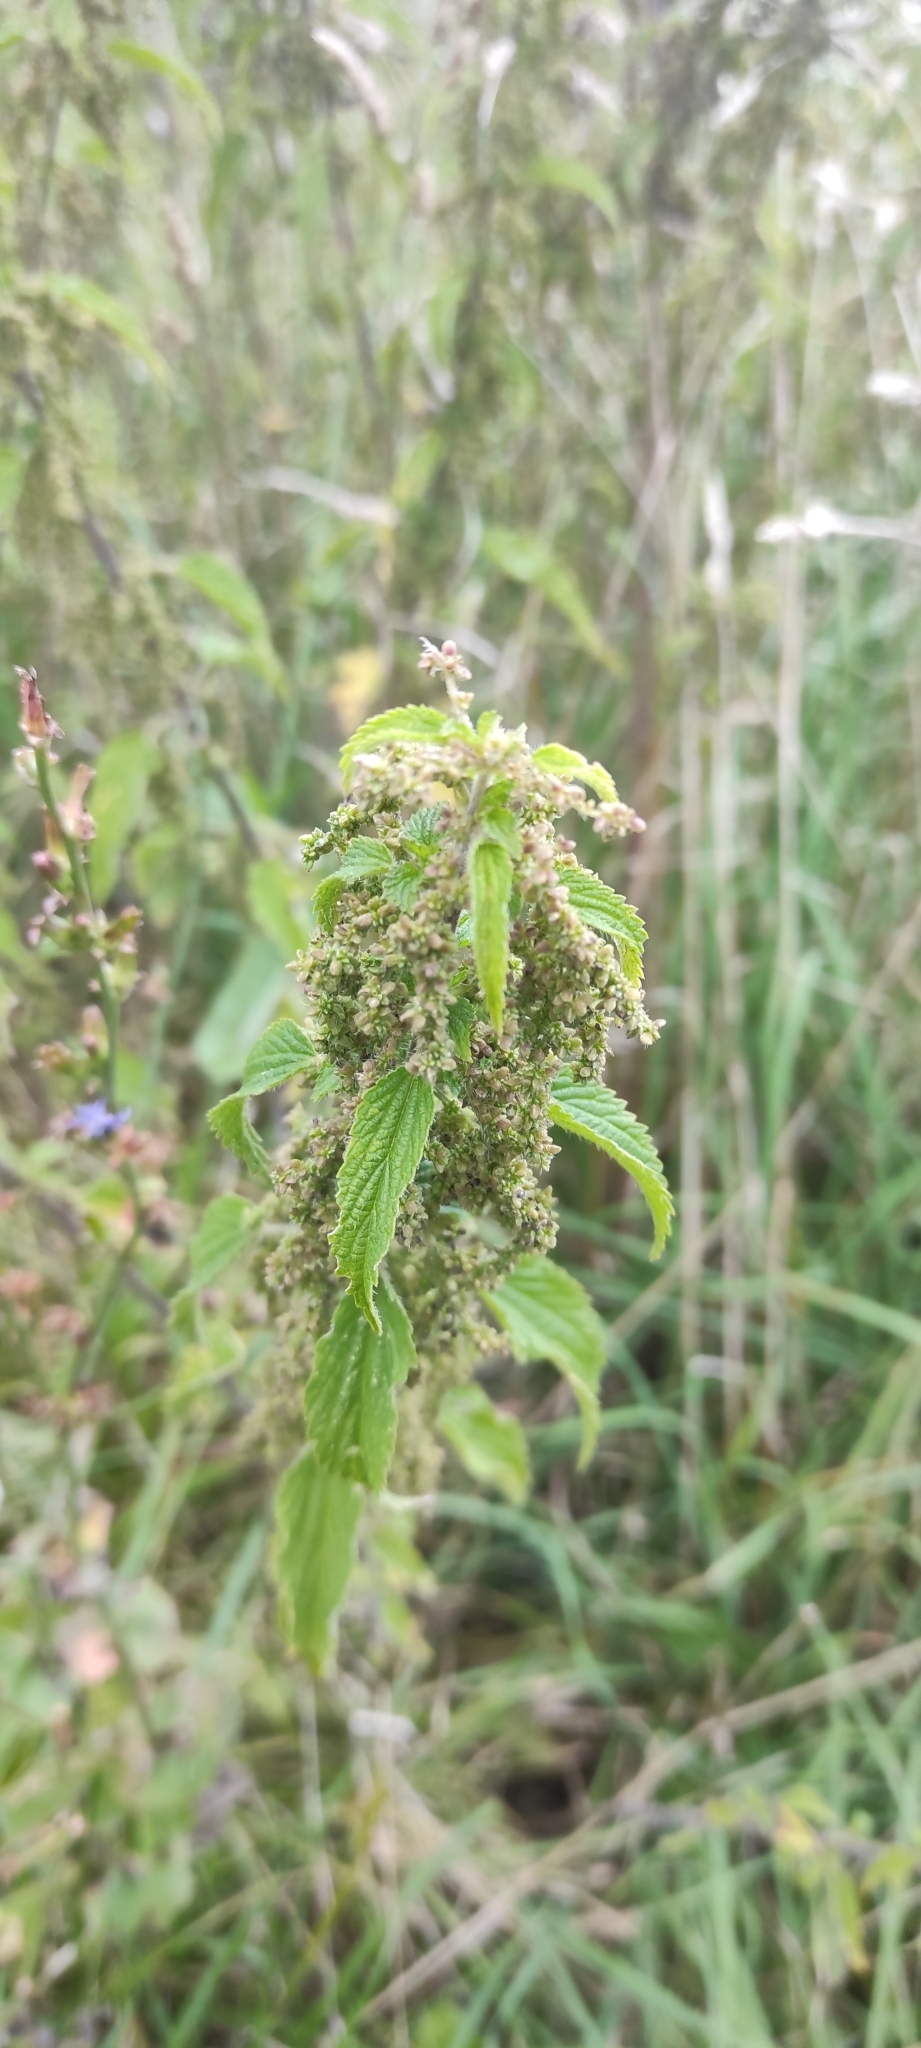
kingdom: Plantae
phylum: Tracheophyta
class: Magnoliopsida
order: Rosales
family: Urticaceae
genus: Urtica
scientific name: Urtica dioica
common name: Common nettle
